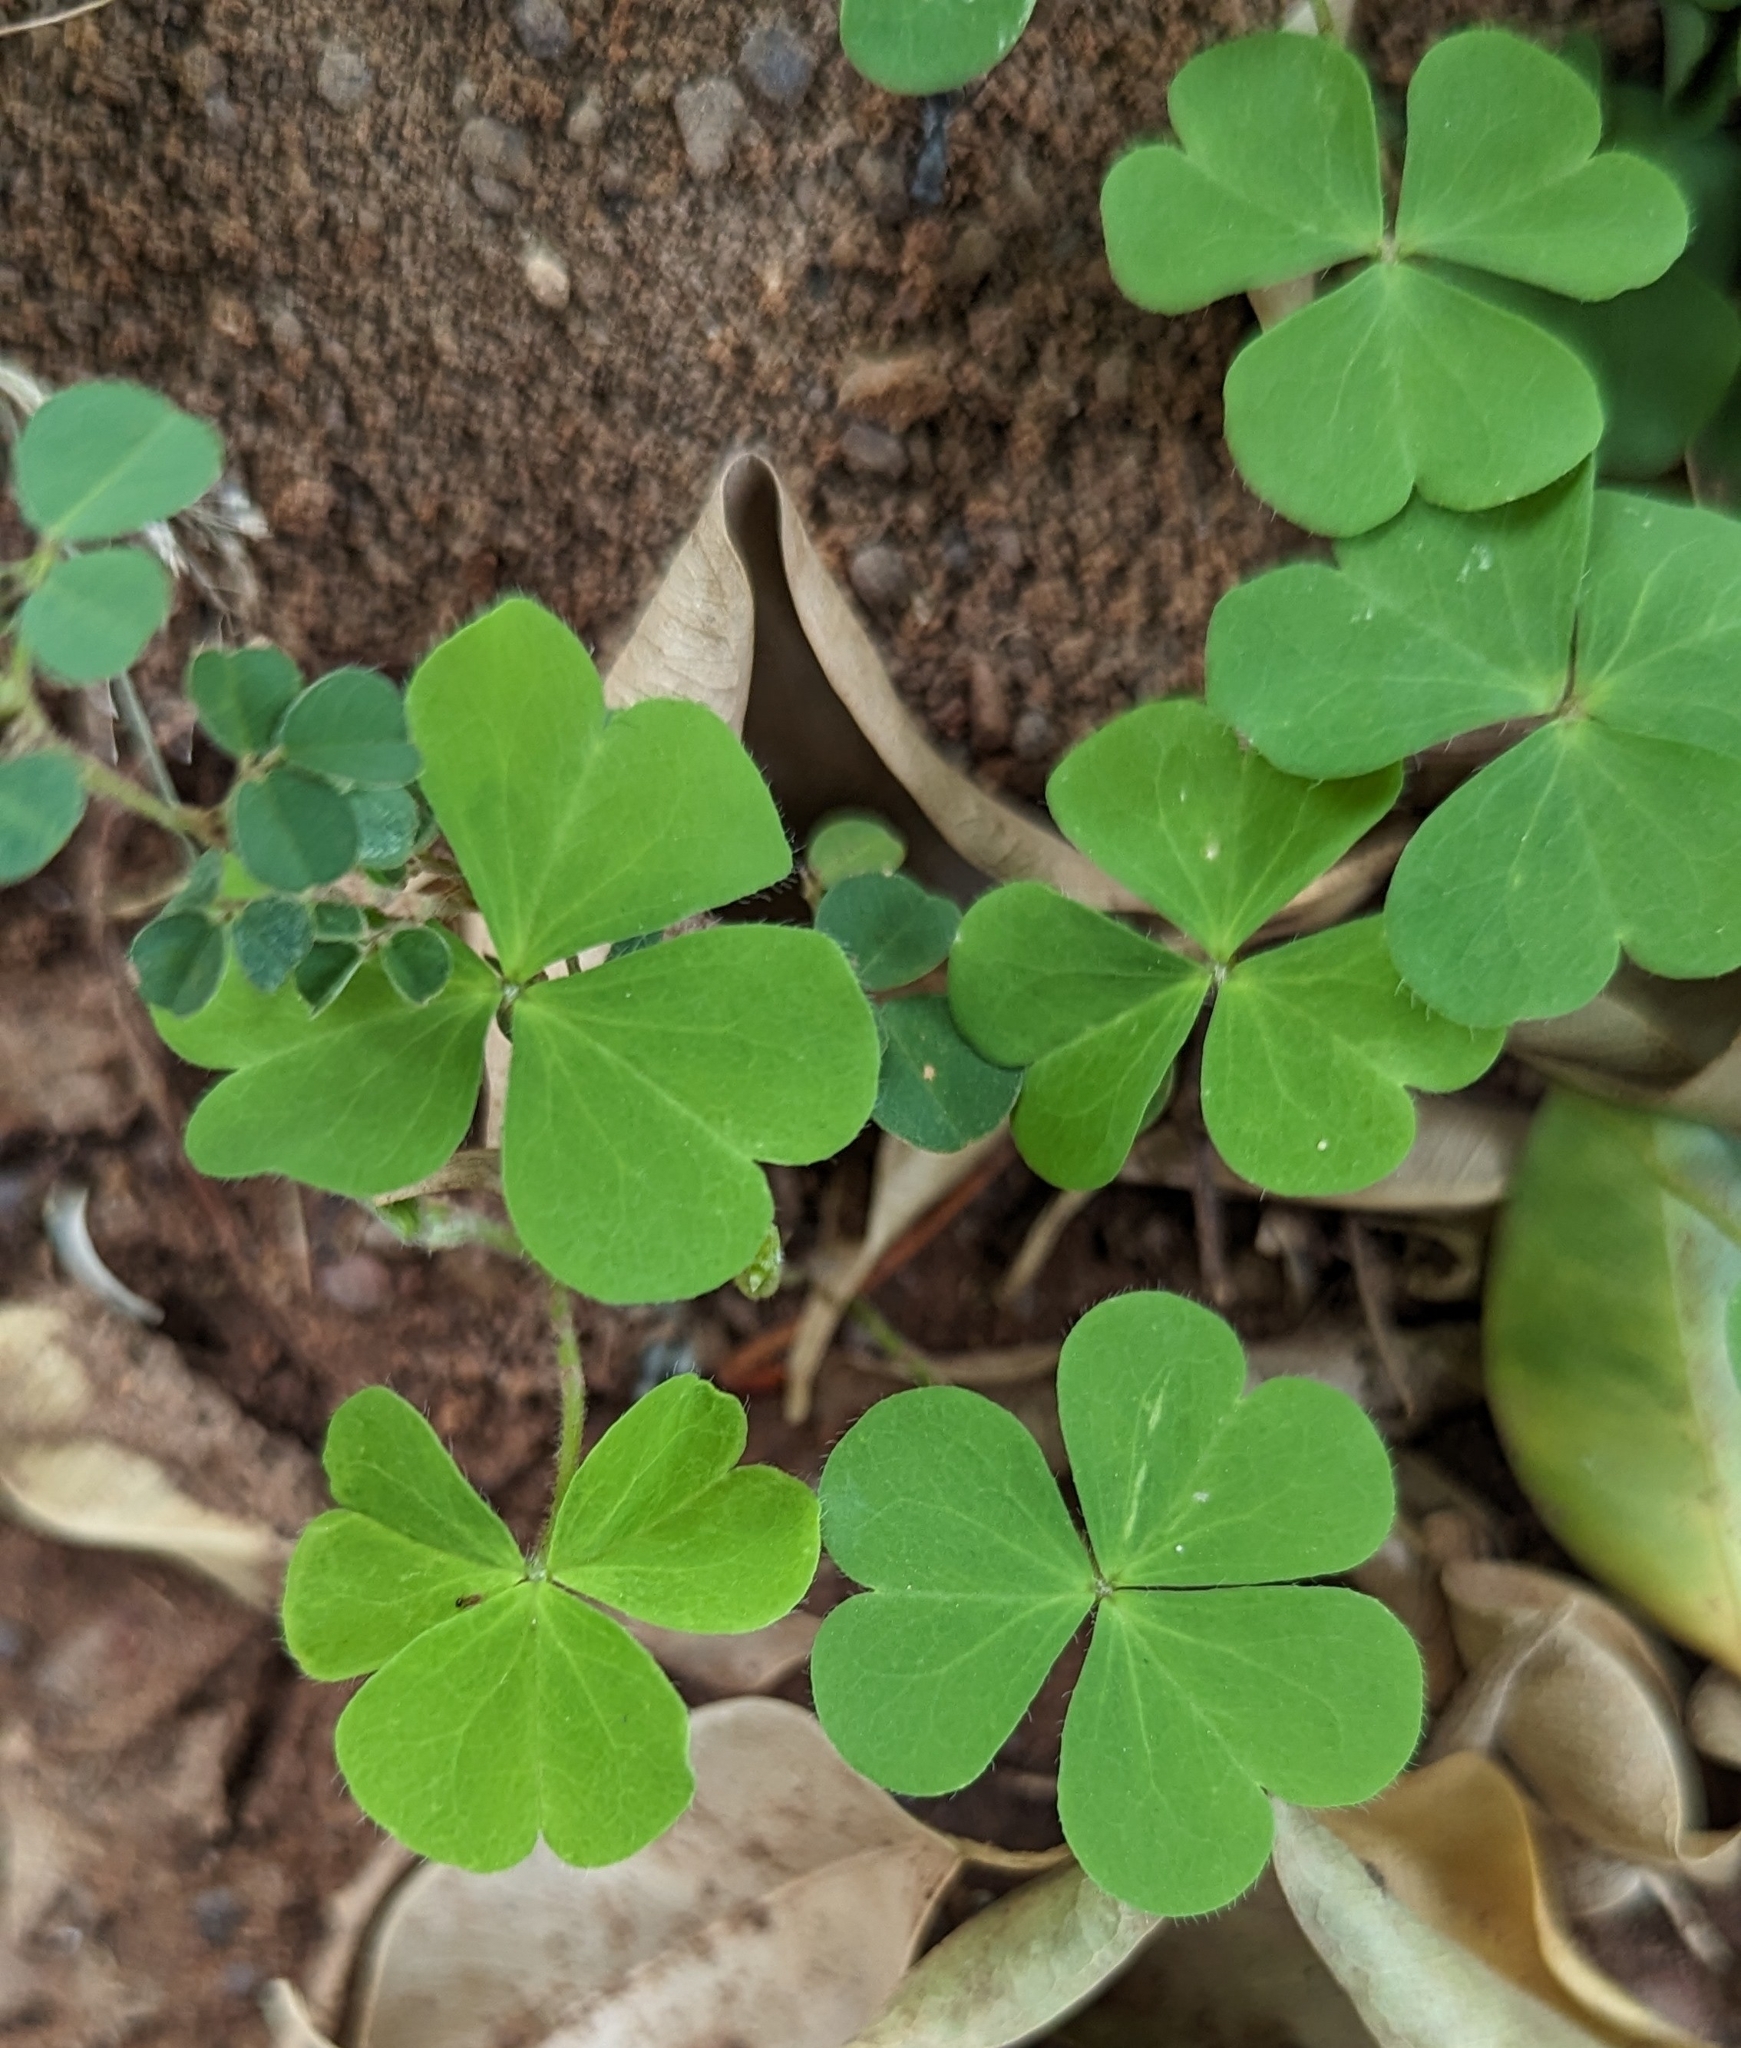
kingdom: Plantae
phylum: Tracheophyta
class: Magnoliopsida
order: Oxalidales
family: Oxalidaceae
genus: Oxalis
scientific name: Oxalis corniculata
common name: Procumbent yellow-sorrel
